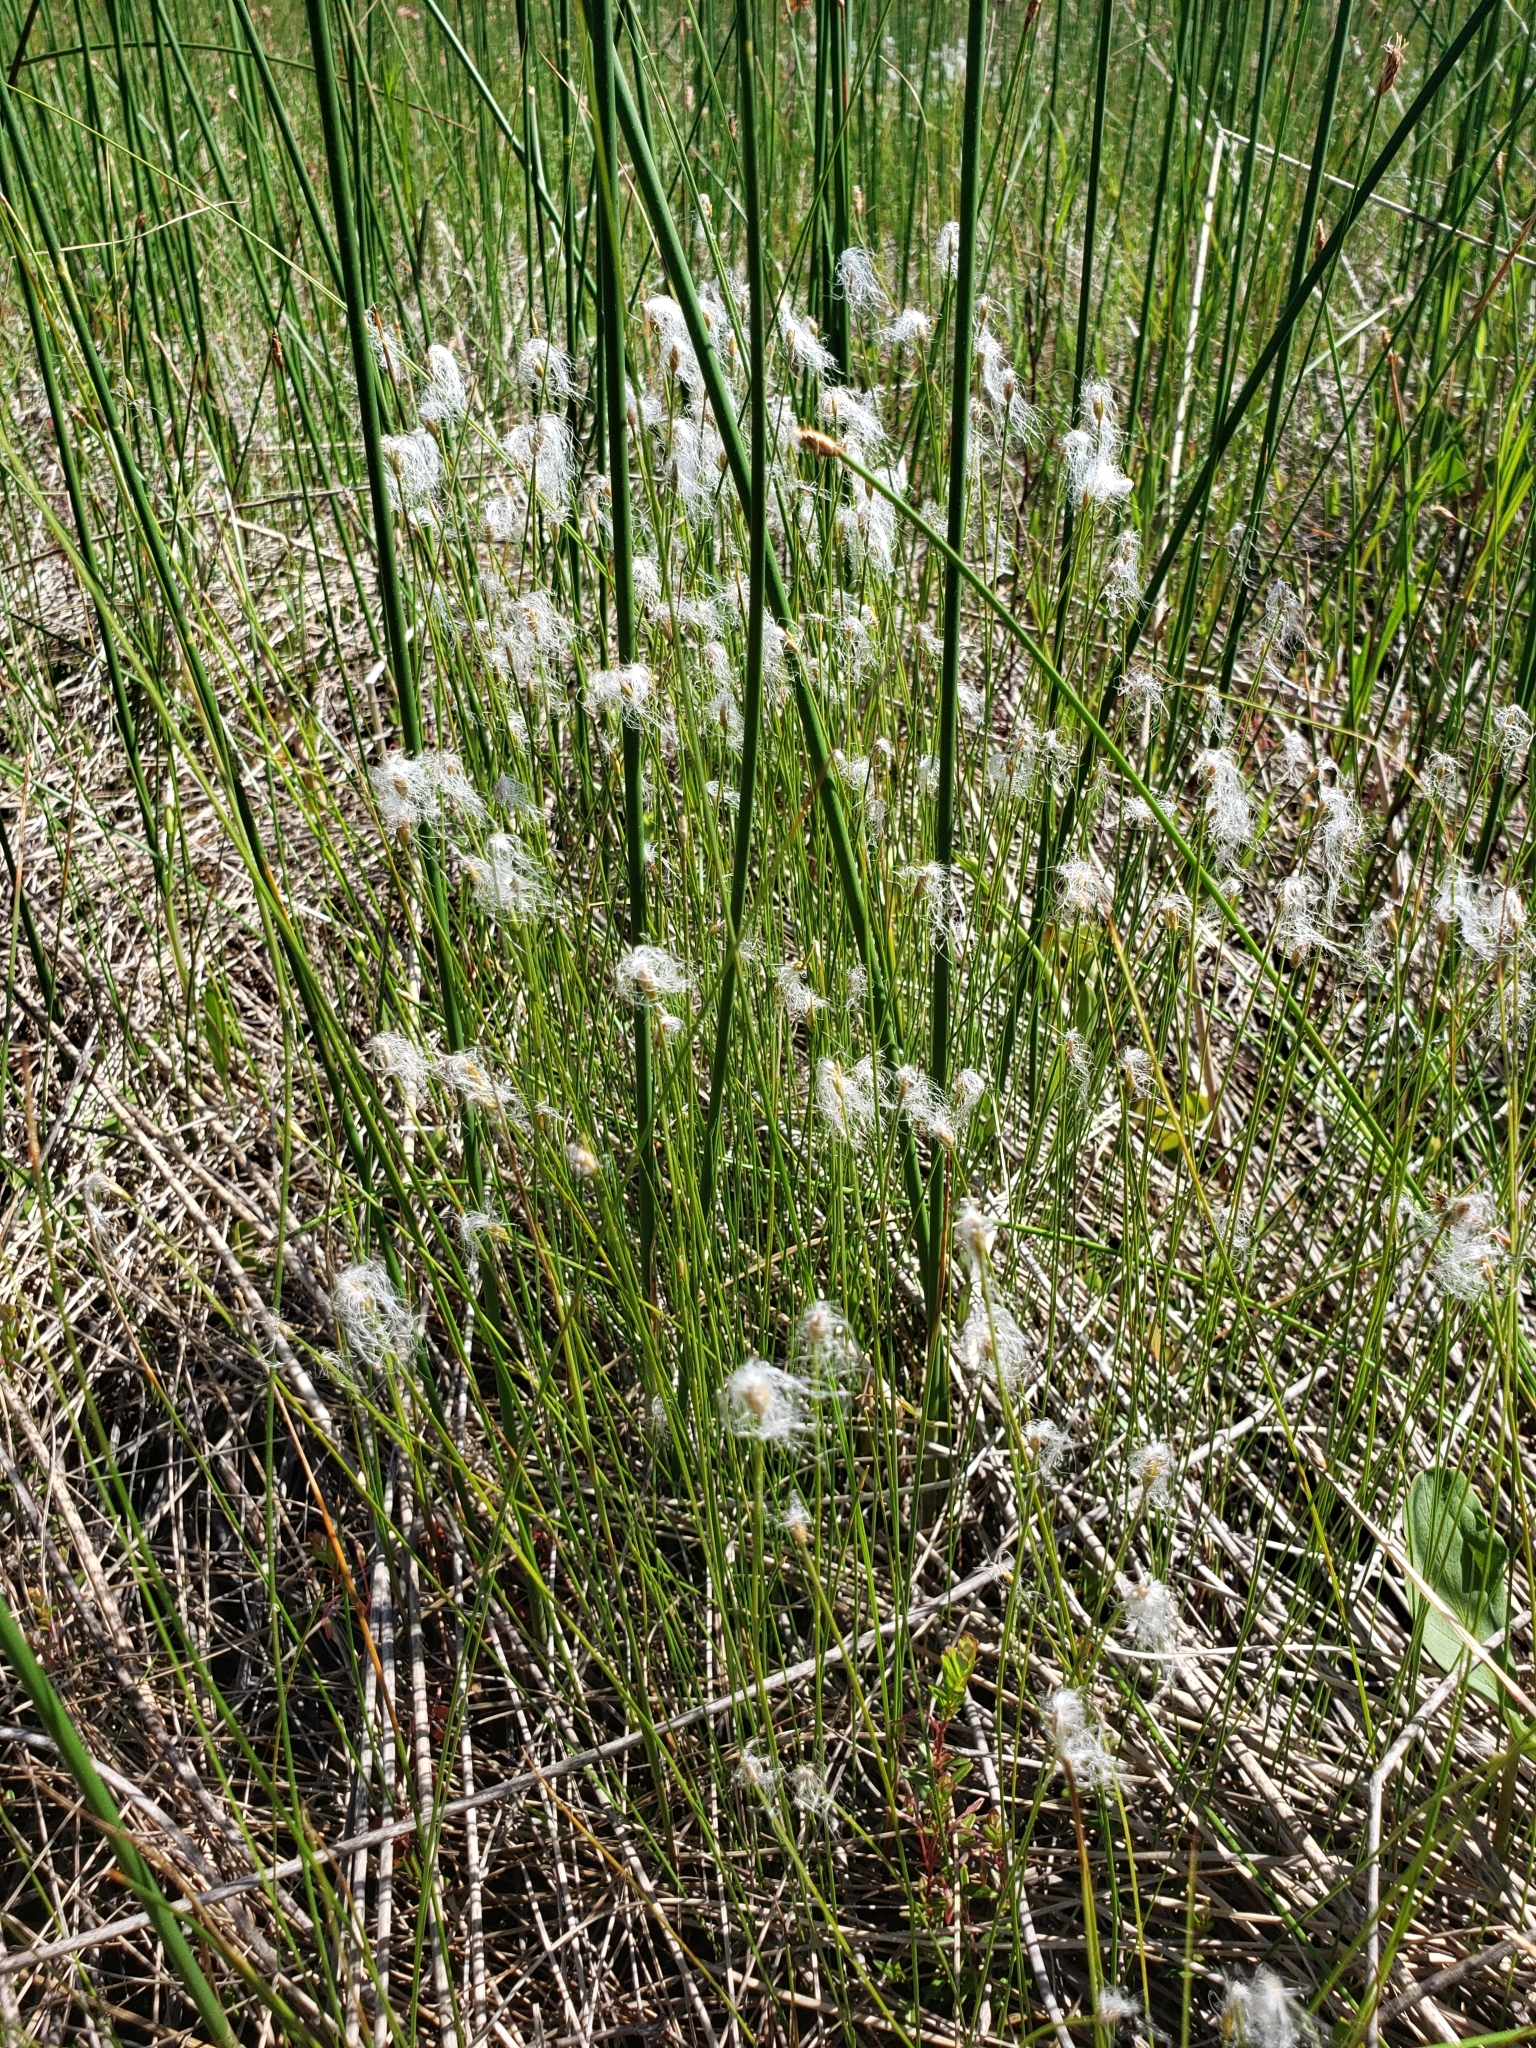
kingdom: Plantae
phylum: Tracheophyta
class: Liliopsida
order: Poales
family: Cyperaceae
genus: Trichophorum
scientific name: Trichophorum alpinum
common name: Alpine bulrush
